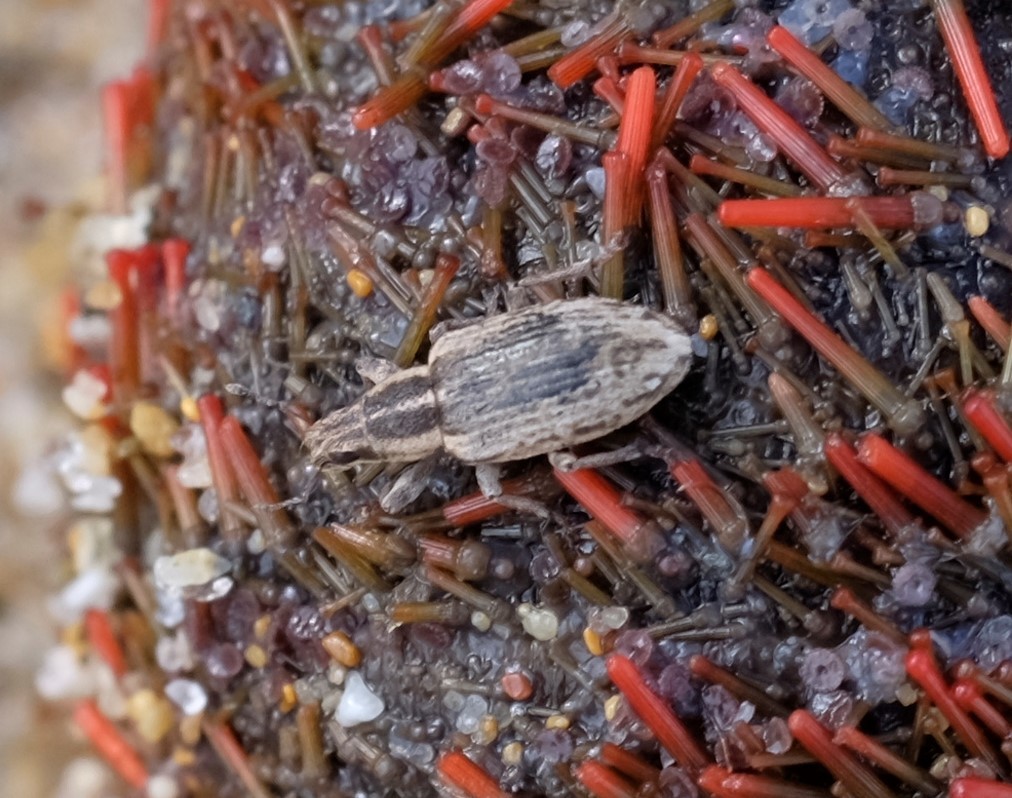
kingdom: Animalia
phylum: Arthropoda
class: Insecta
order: Coleoptera
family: Curculionidae
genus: Sitona
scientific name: Sitona discoideus
